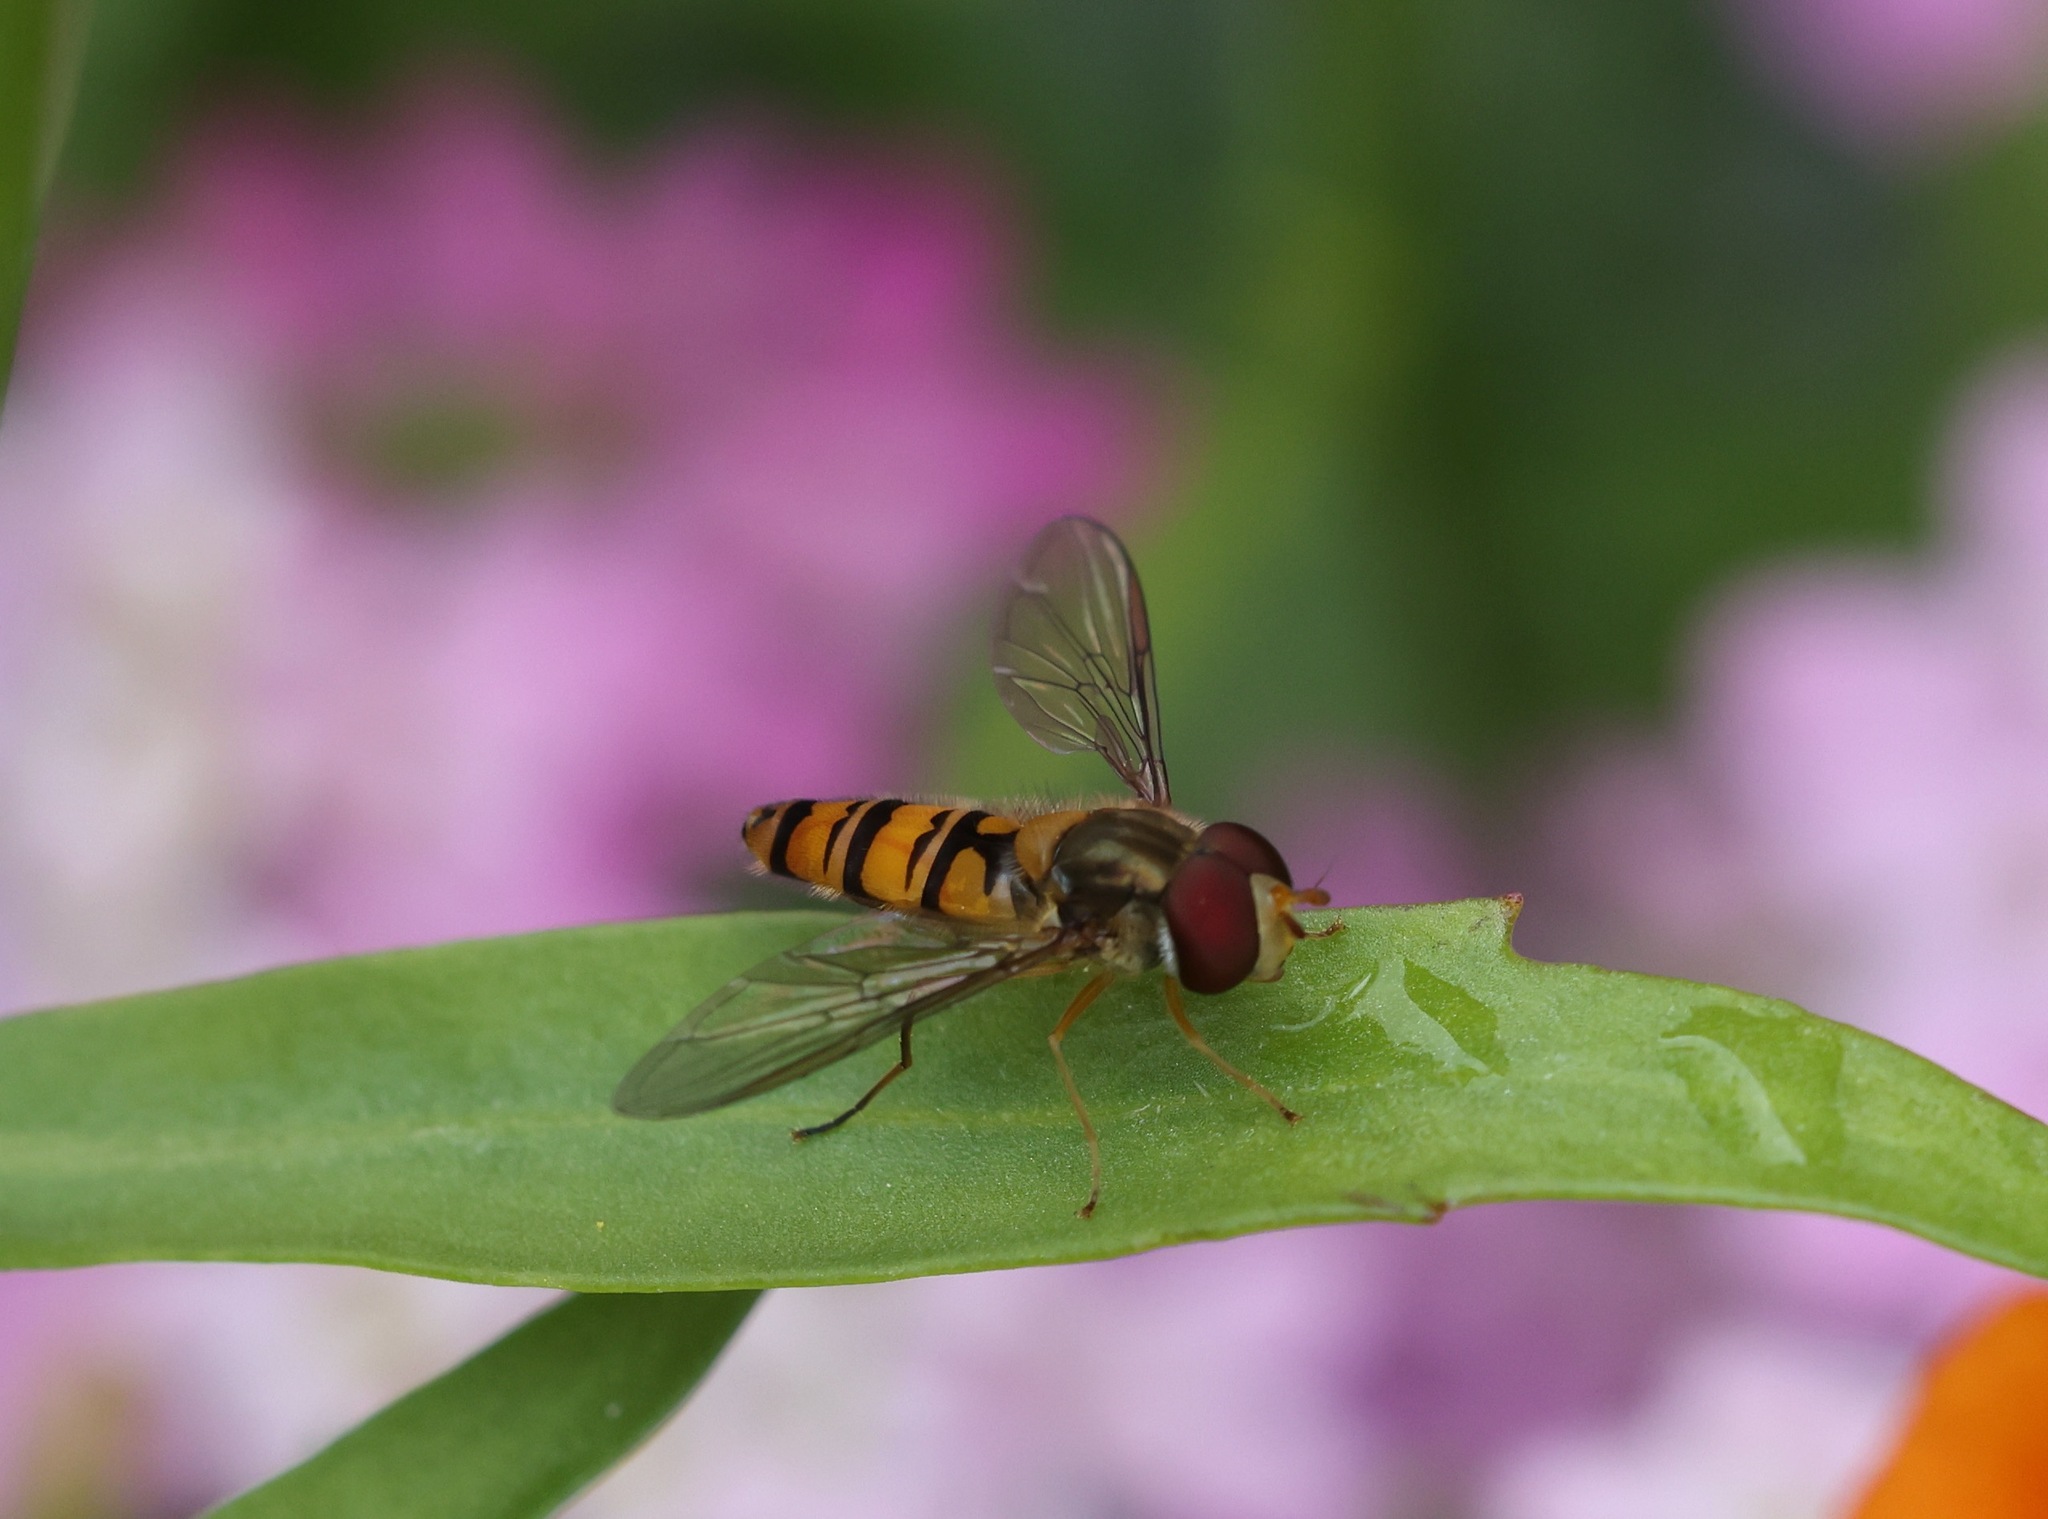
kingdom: Animalia
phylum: Arthropoda
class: Insecta
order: Diptera
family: Syrphidae
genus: Episyrphus
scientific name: Episyrphus balteatus
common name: Marmalade hoverfly
